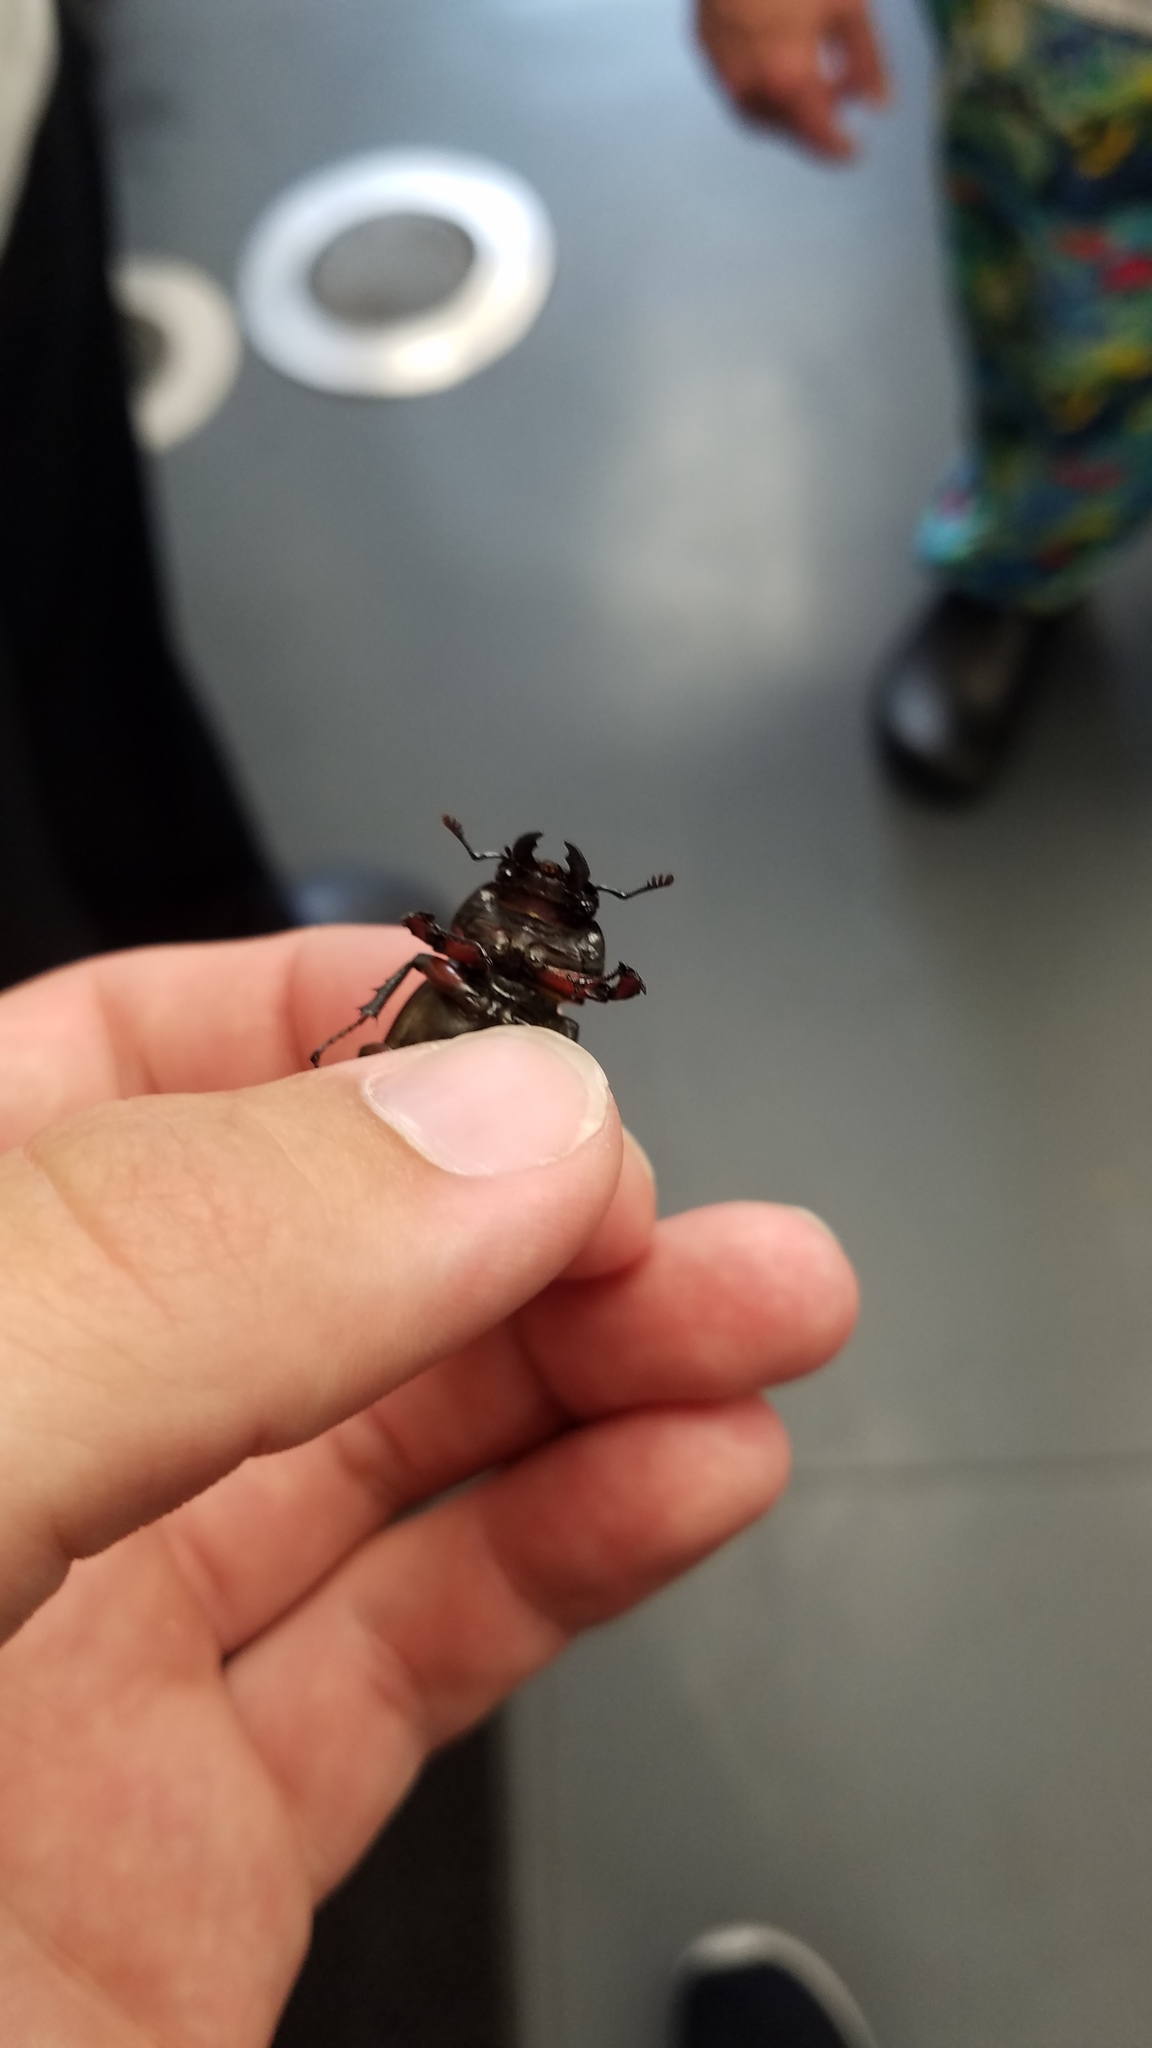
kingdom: Animalia
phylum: Arthropoda
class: Insecta
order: Coleoptera
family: Lucanidae
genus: Lucanus
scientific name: Lucanus capreolus
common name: Stag beetle
